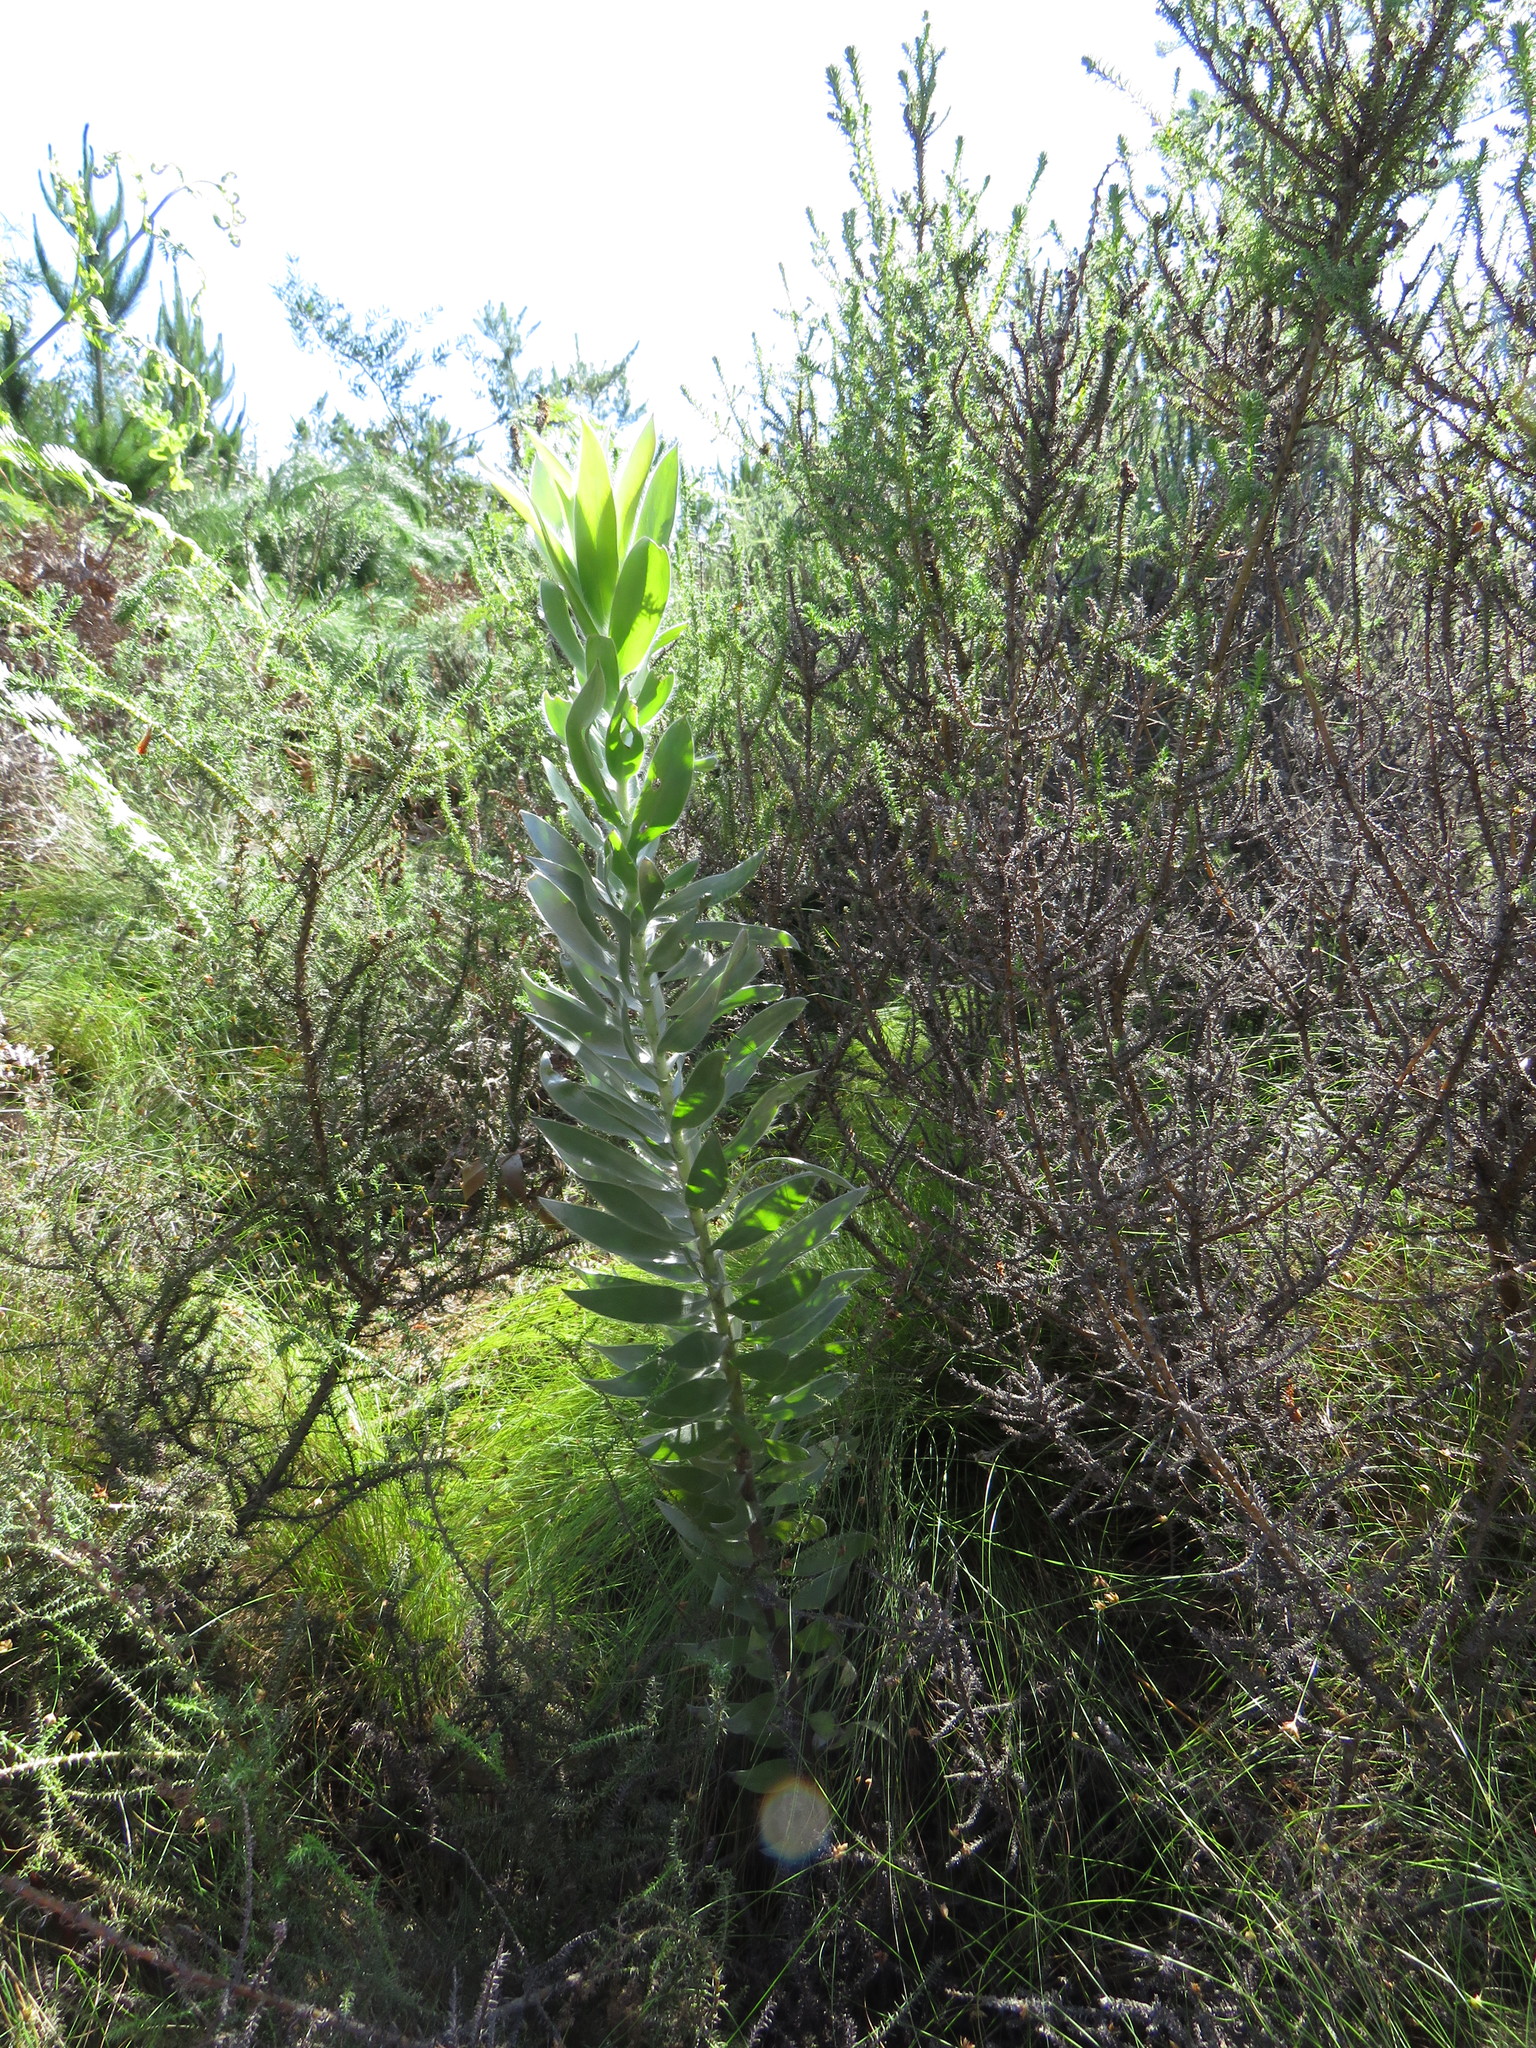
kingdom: Plantae
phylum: Tracheophyta
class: Magnoliopsida
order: Proteales
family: Proteaceae
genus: Leucadendron
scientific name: Leucadendron argenteum
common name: Cape silver tree
